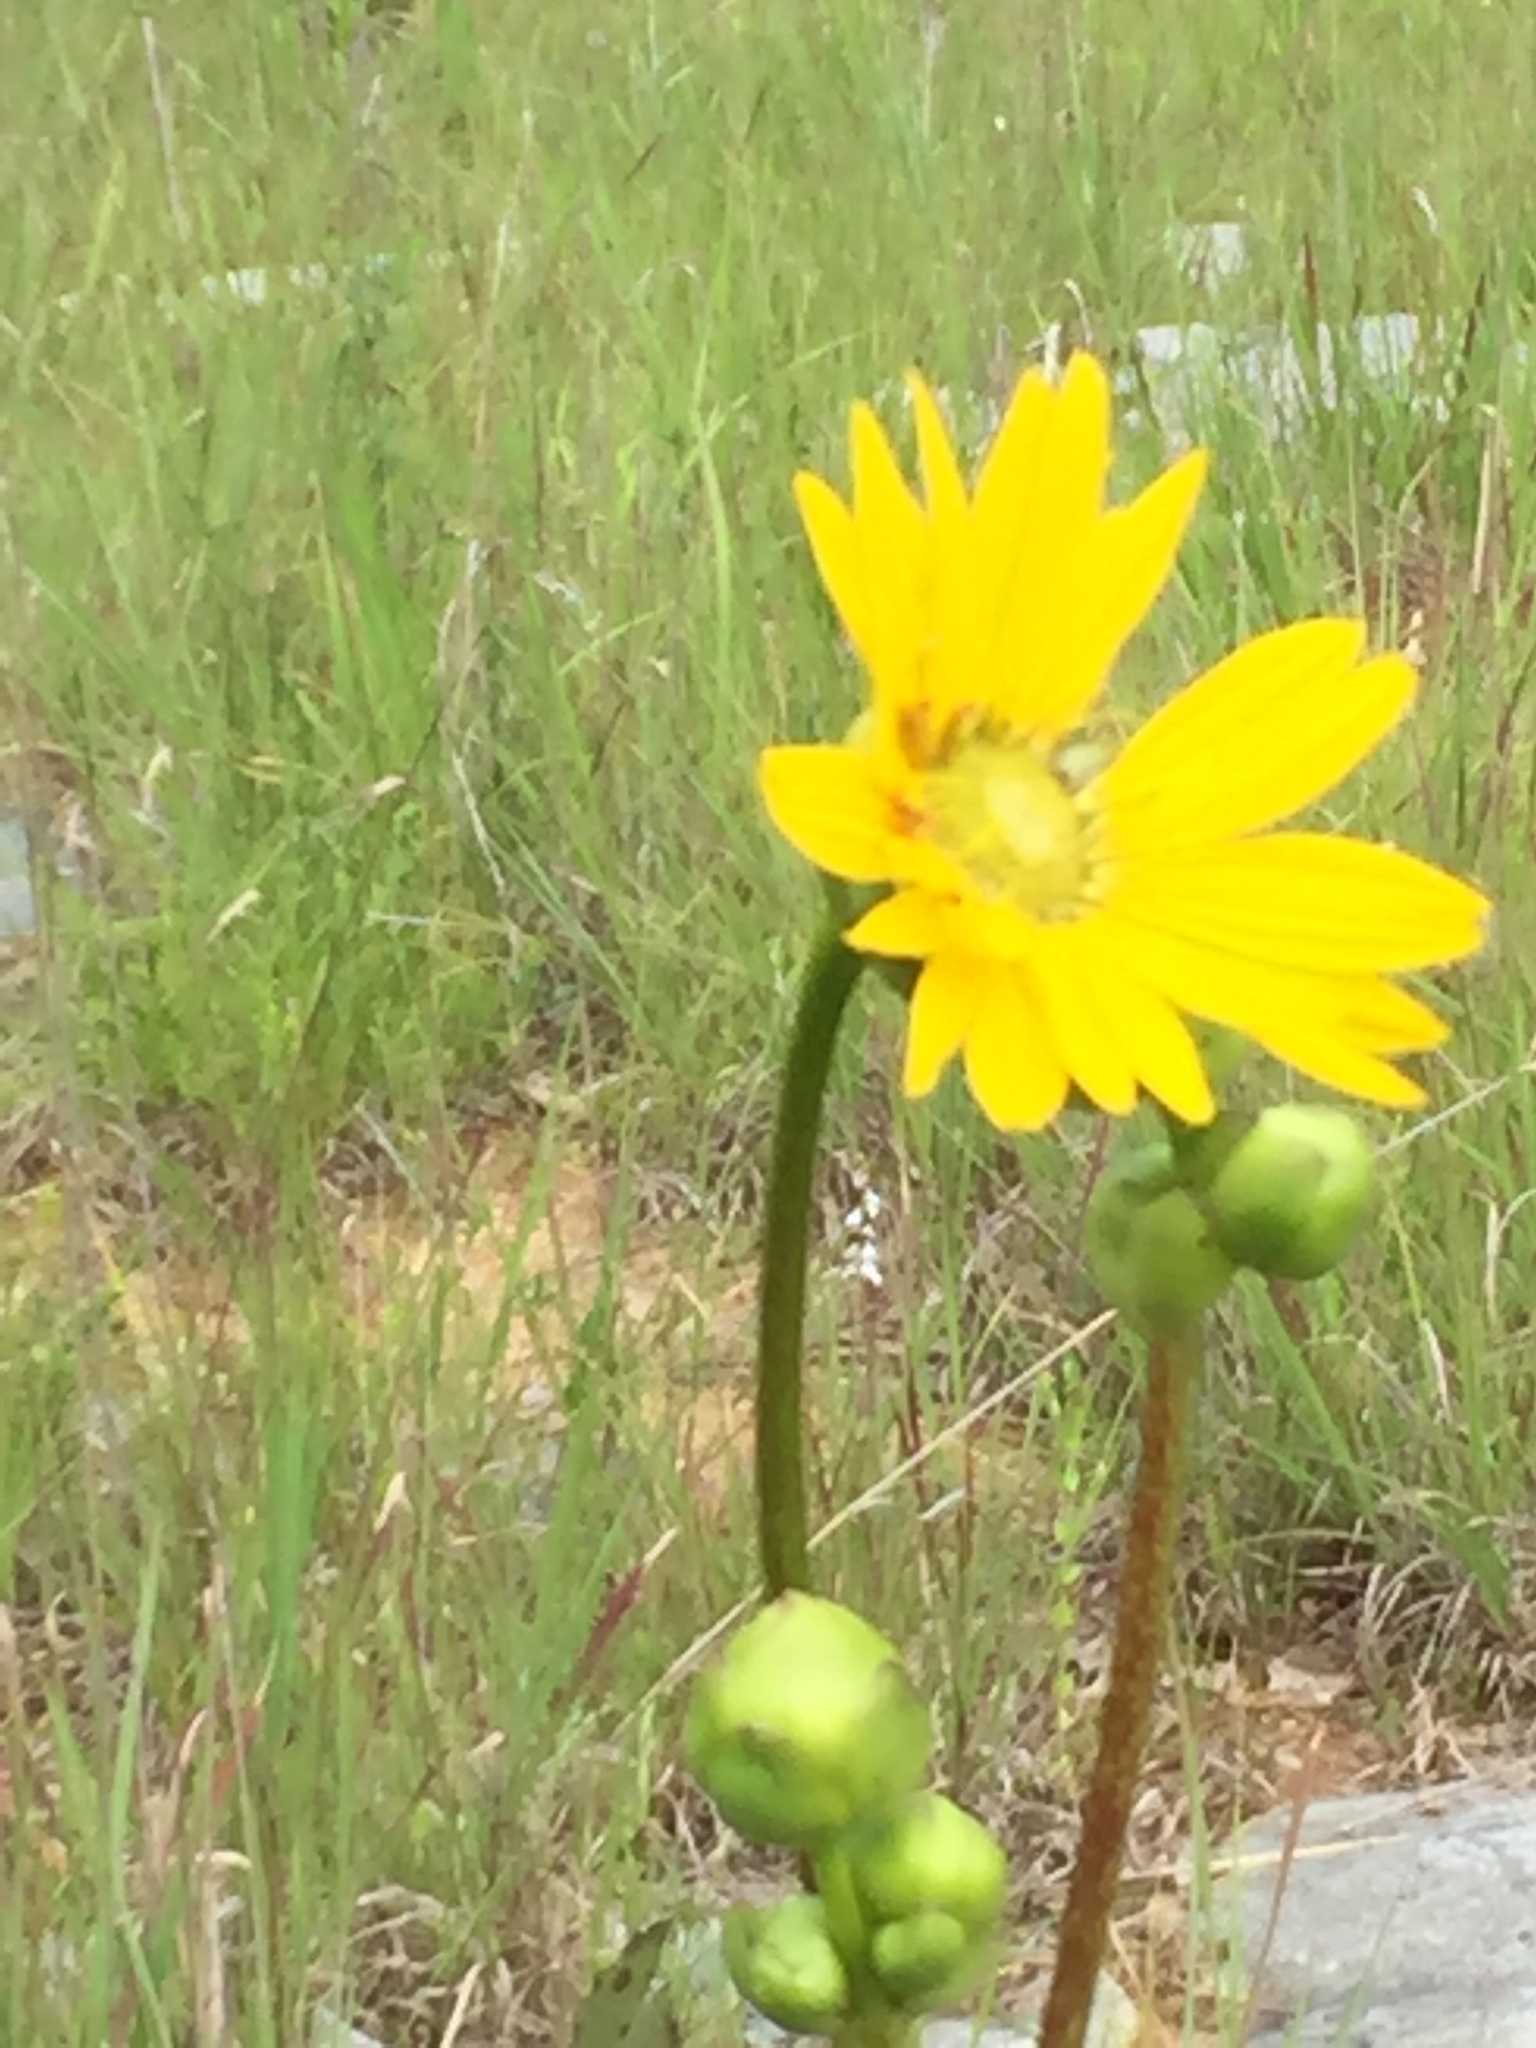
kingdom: Plantae
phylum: Tracheophyta
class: Magnoliopsida
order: Asterales
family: Asteraceae
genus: Silphium
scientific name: Silphium terebinthinaceum
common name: Basal-leaf rosinweed
